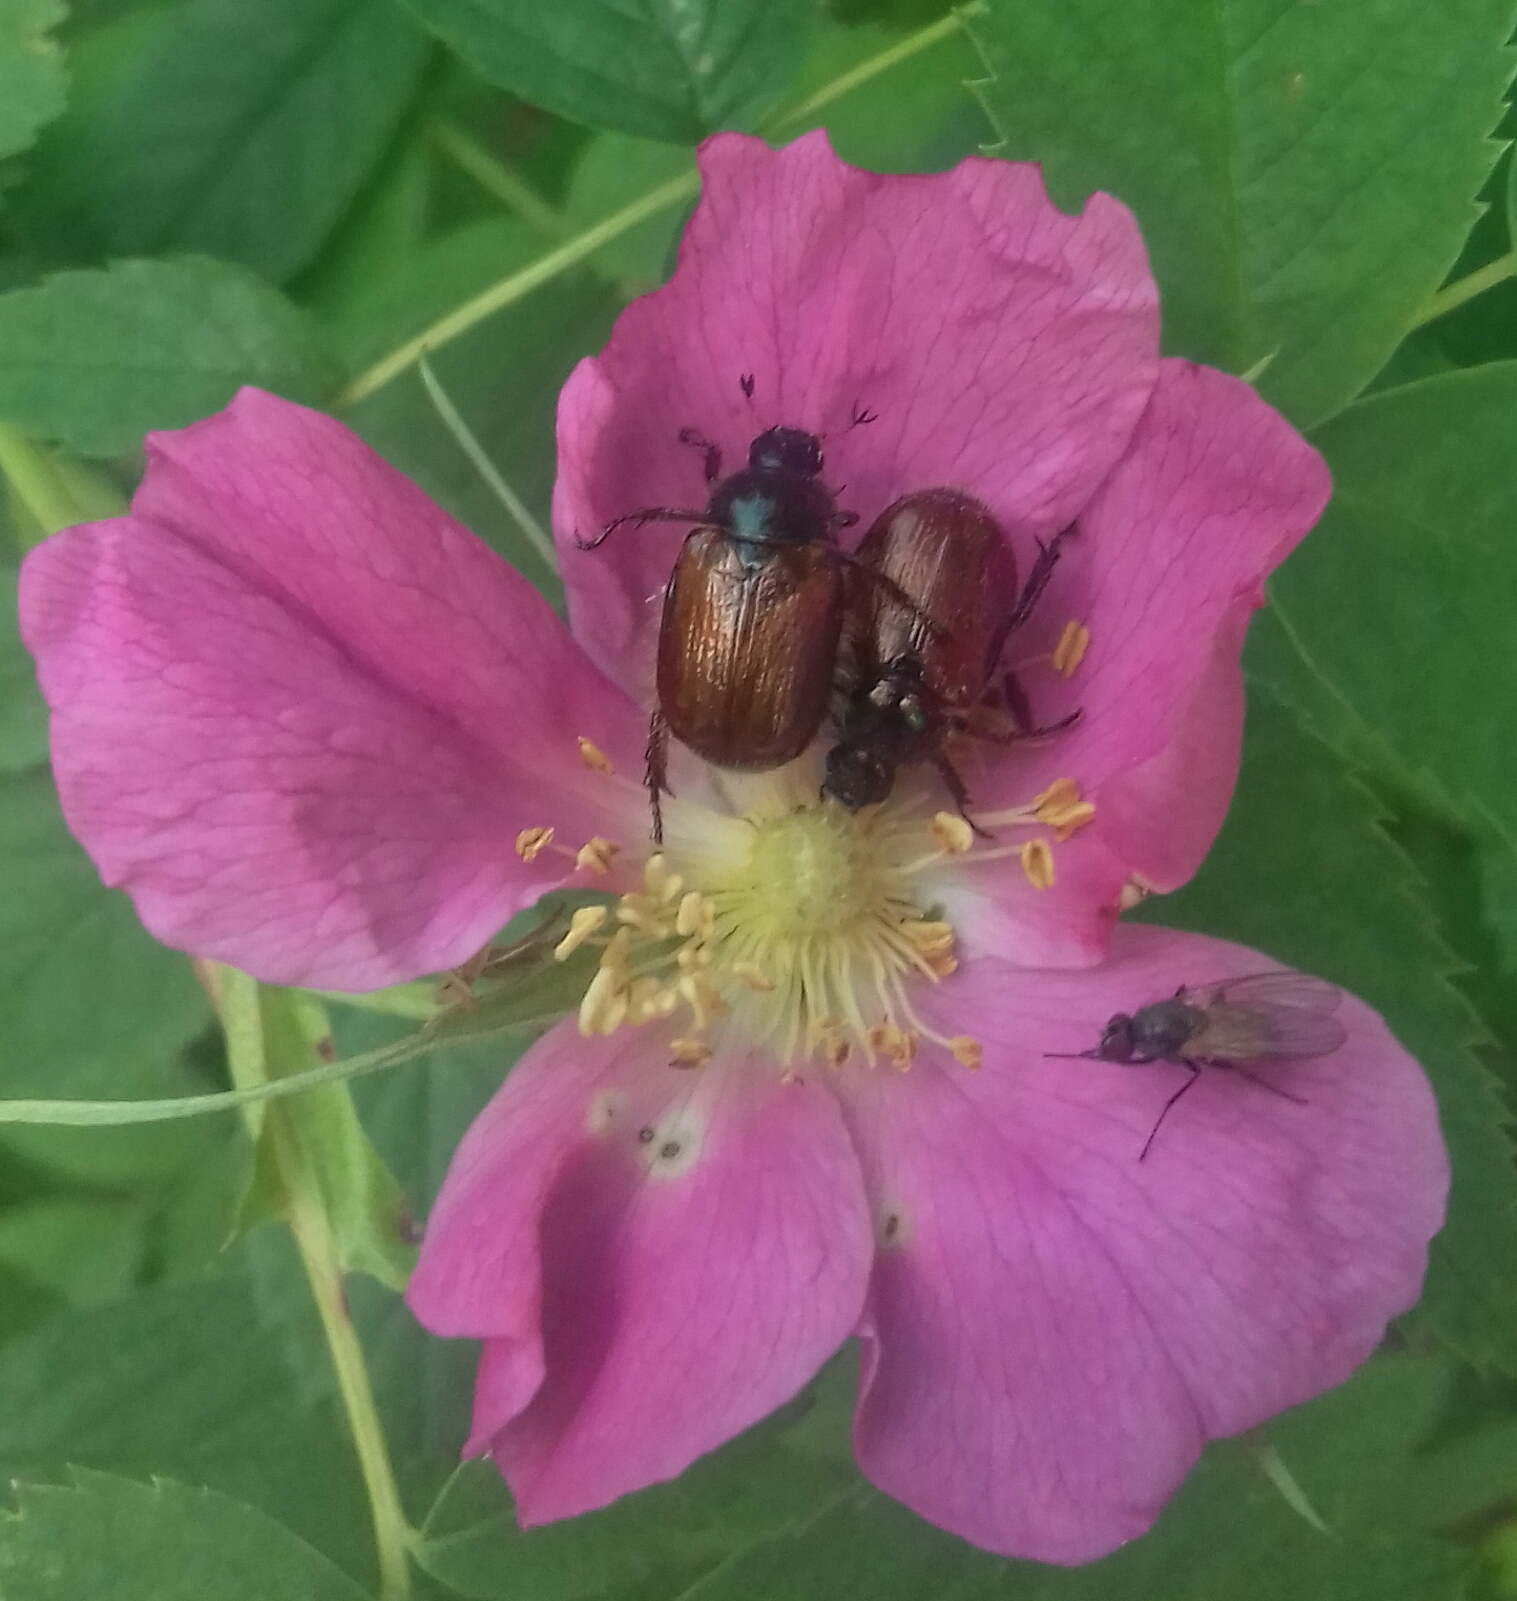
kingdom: Animalia
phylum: Arthropoda
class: Insecta
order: Coleoptera
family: Scarabaeidae
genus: Phyllopertha
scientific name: Phyllopertha horticola
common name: Garden chafer
